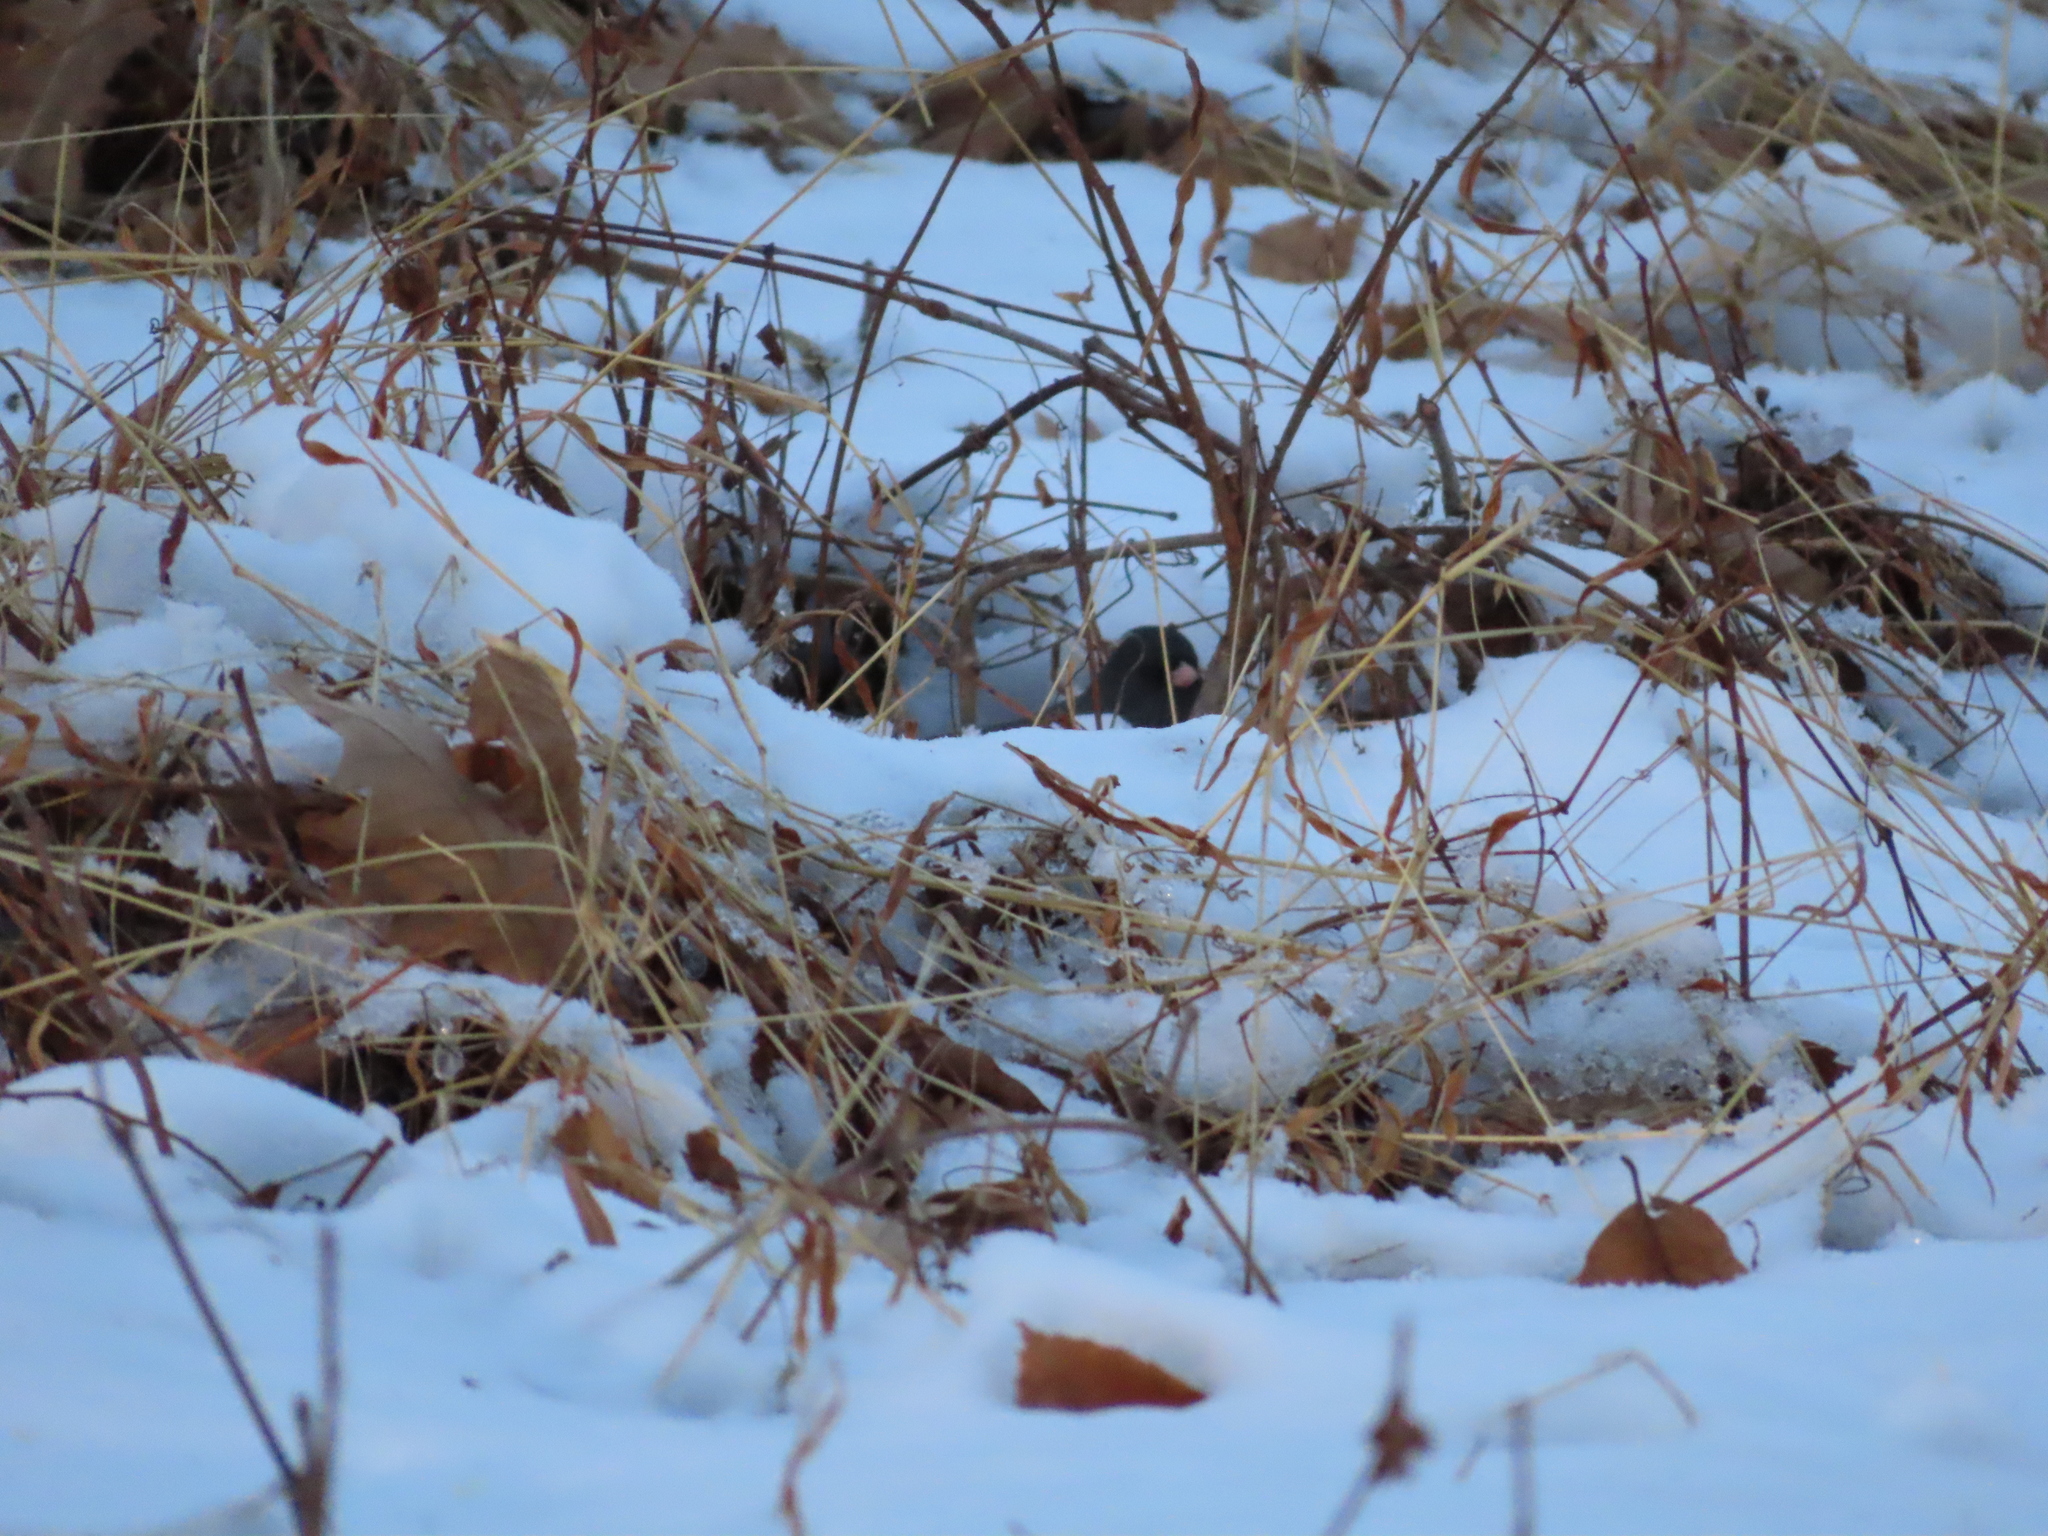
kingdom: Animalia
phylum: Chordata
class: Aves
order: Passeriformes
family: Passerellidae
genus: Junco
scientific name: Junco hyemalis
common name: Dark-eyed junco
